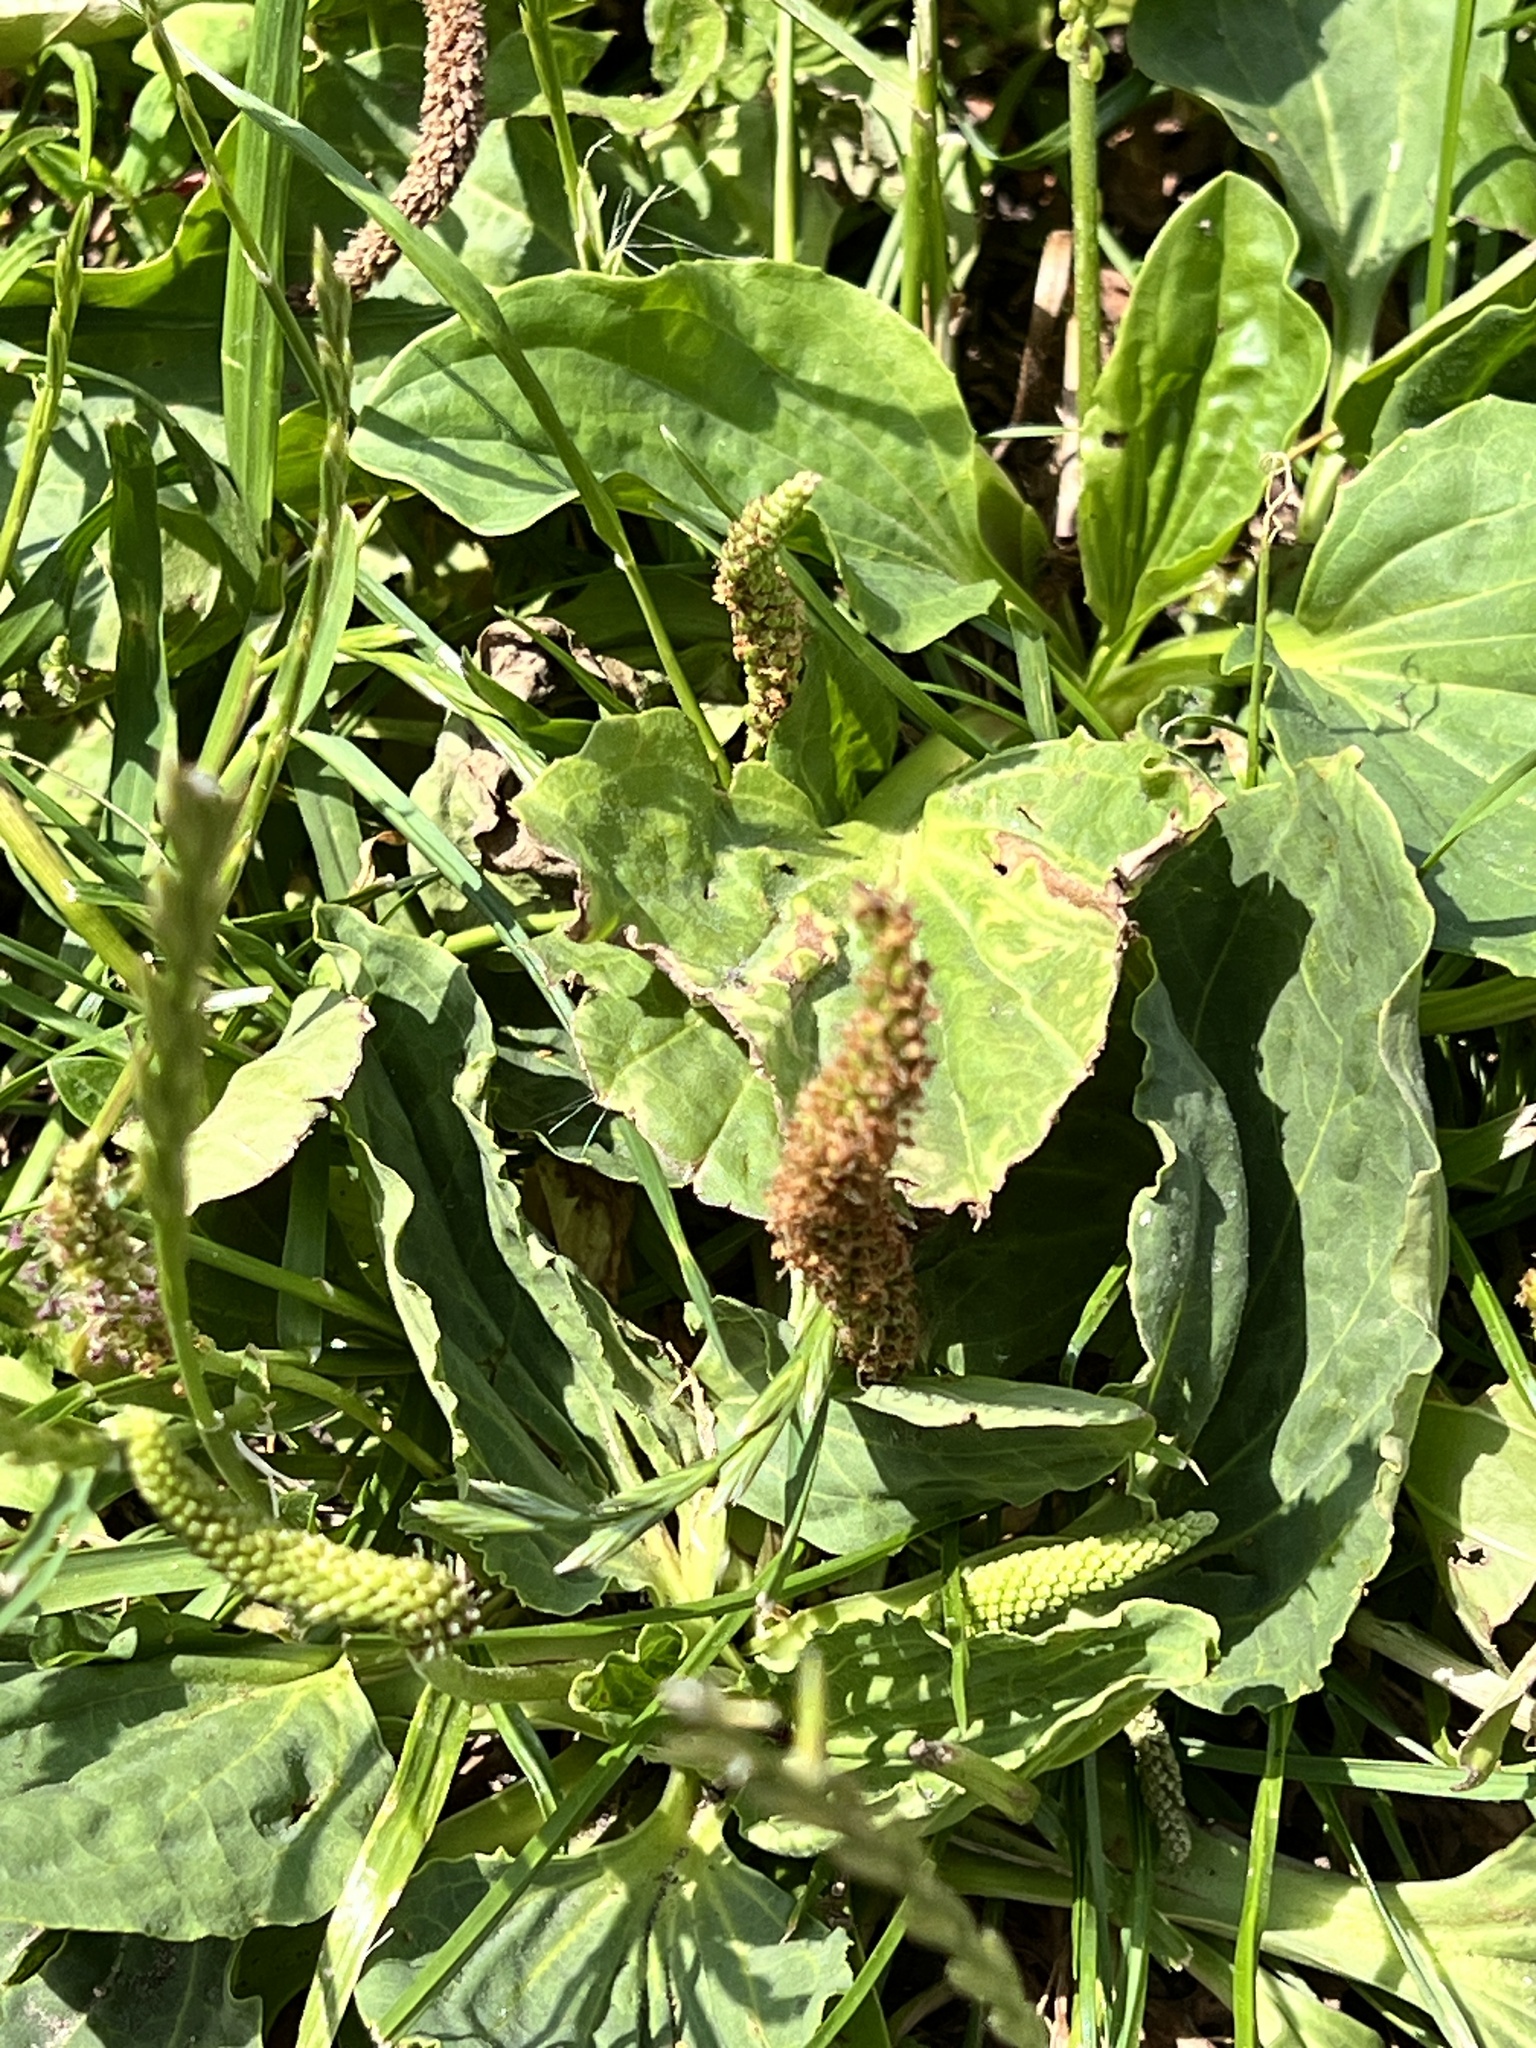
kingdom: Plantae
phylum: Tracheophyta
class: Magnoliopsida
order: Lamiales
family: Plantaginaceae
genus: Plantago
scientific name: Plantago major
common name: Common plantain
